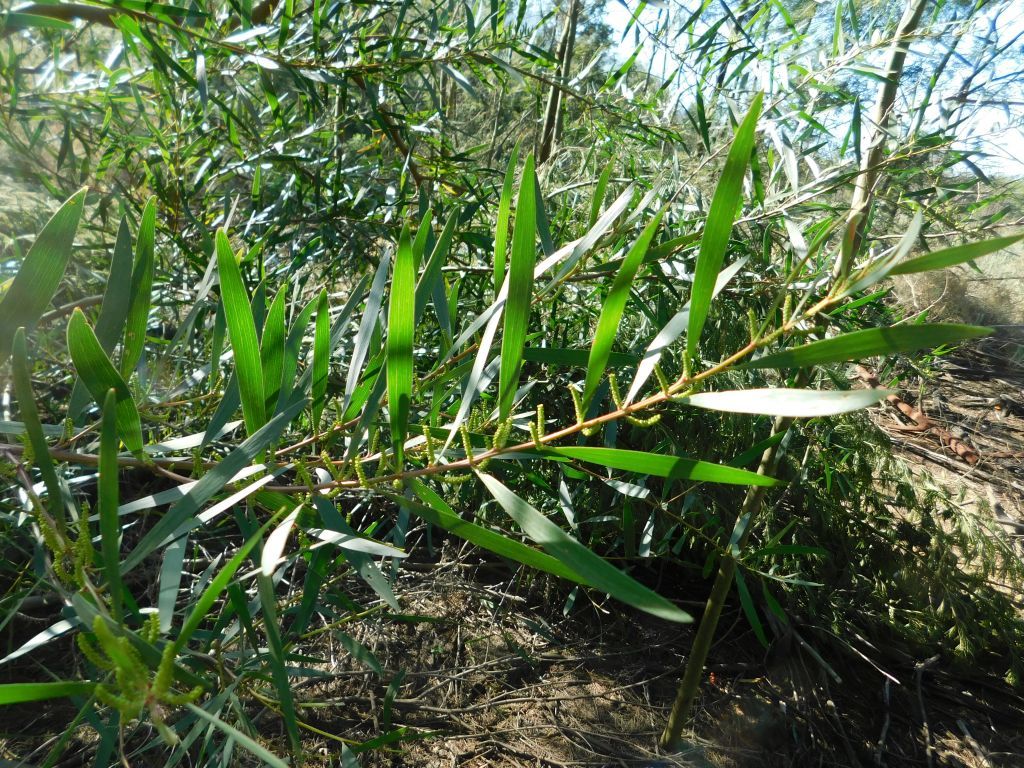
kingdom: Plantae
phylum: Tracheophyta
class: Magnoliopsida
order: Fabales
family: Fabaceae
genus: Acacia
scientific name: Acacia longifolia
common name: Sydney golden wattle
